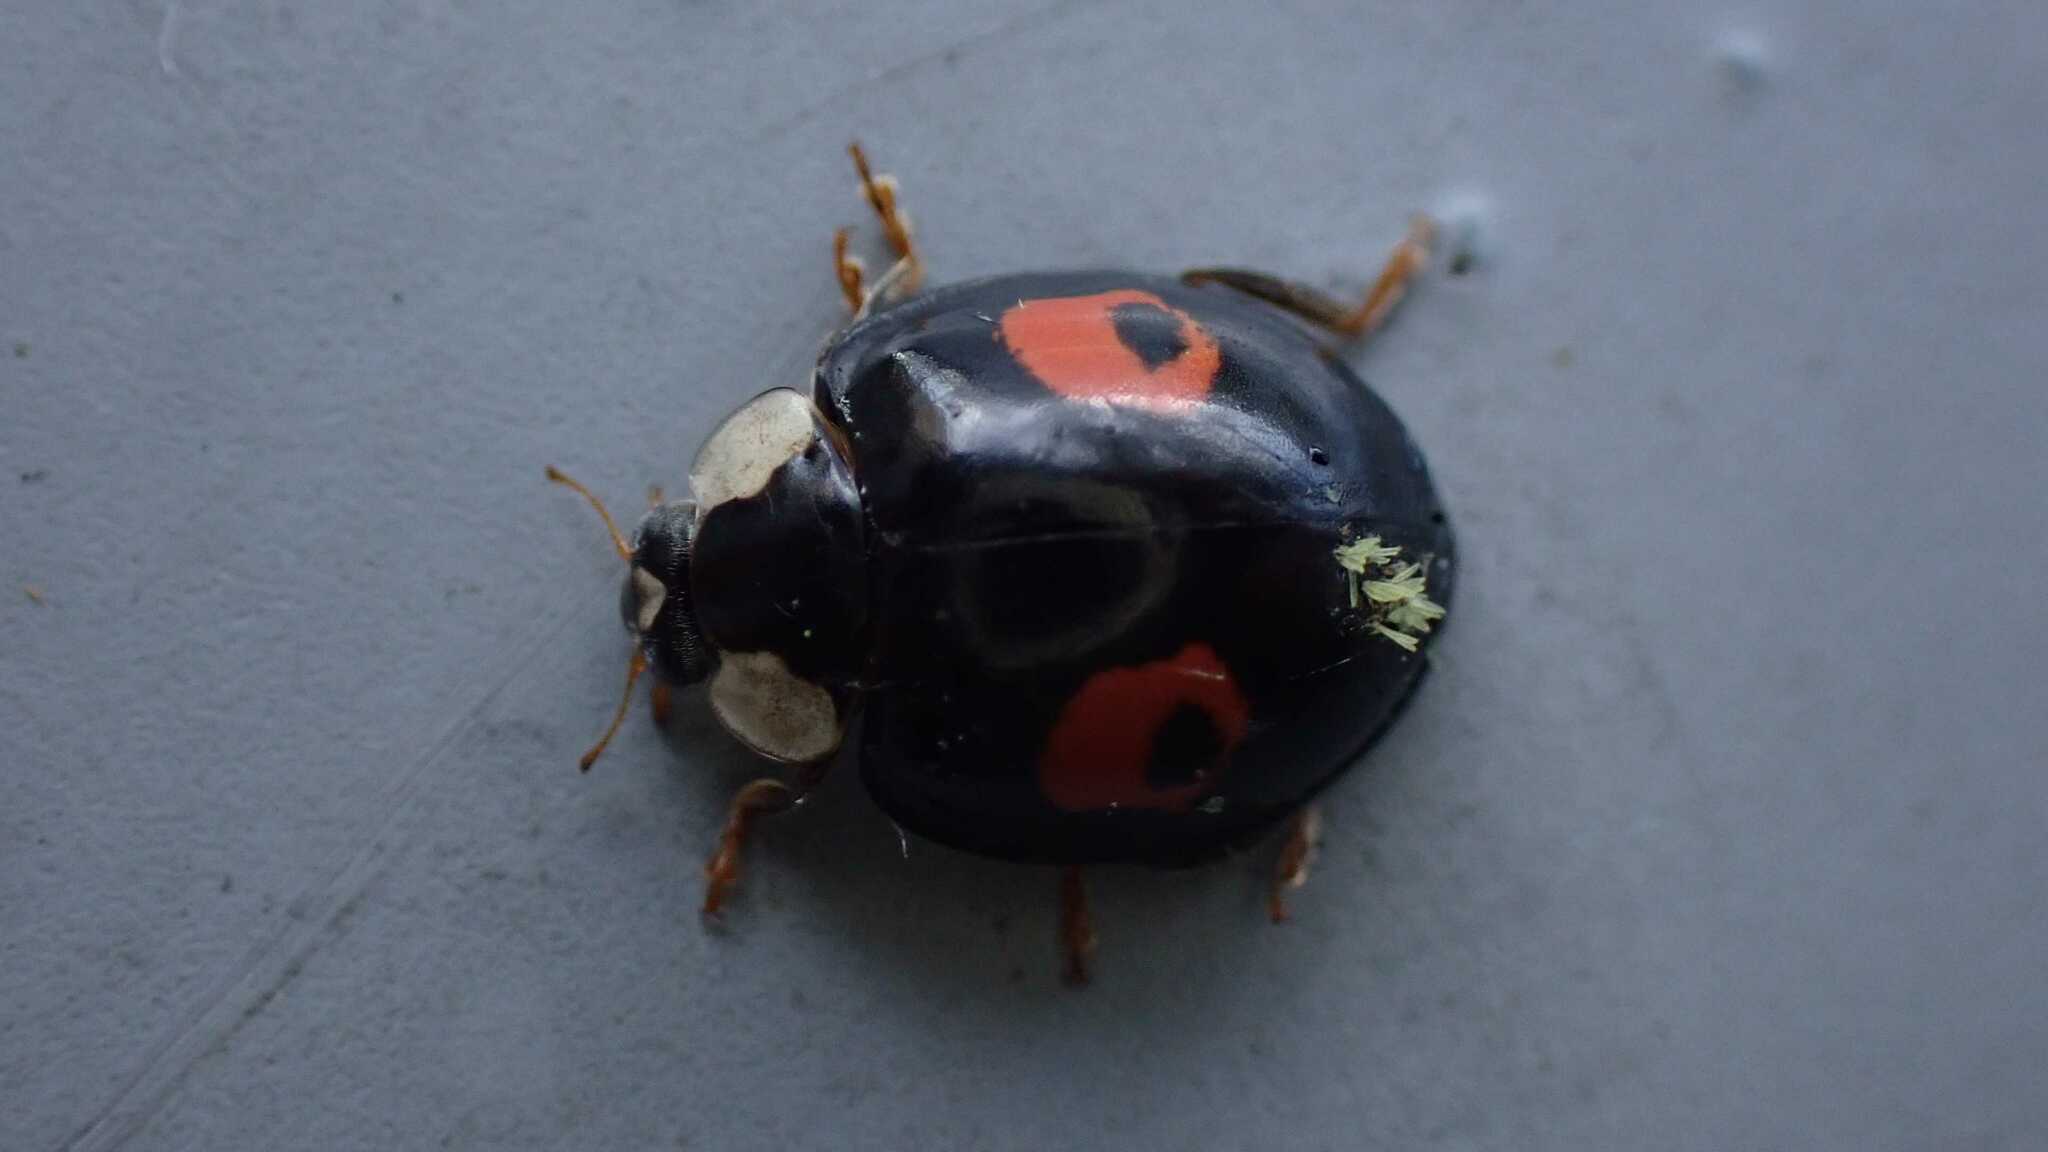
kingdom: Fungi
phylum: Ascomycota
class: Laboulbeniomycetes
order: Laboulbeniales
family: Laboulbeniaceae
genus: Hesperomyces
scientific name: Hesperomyces harmoniae
